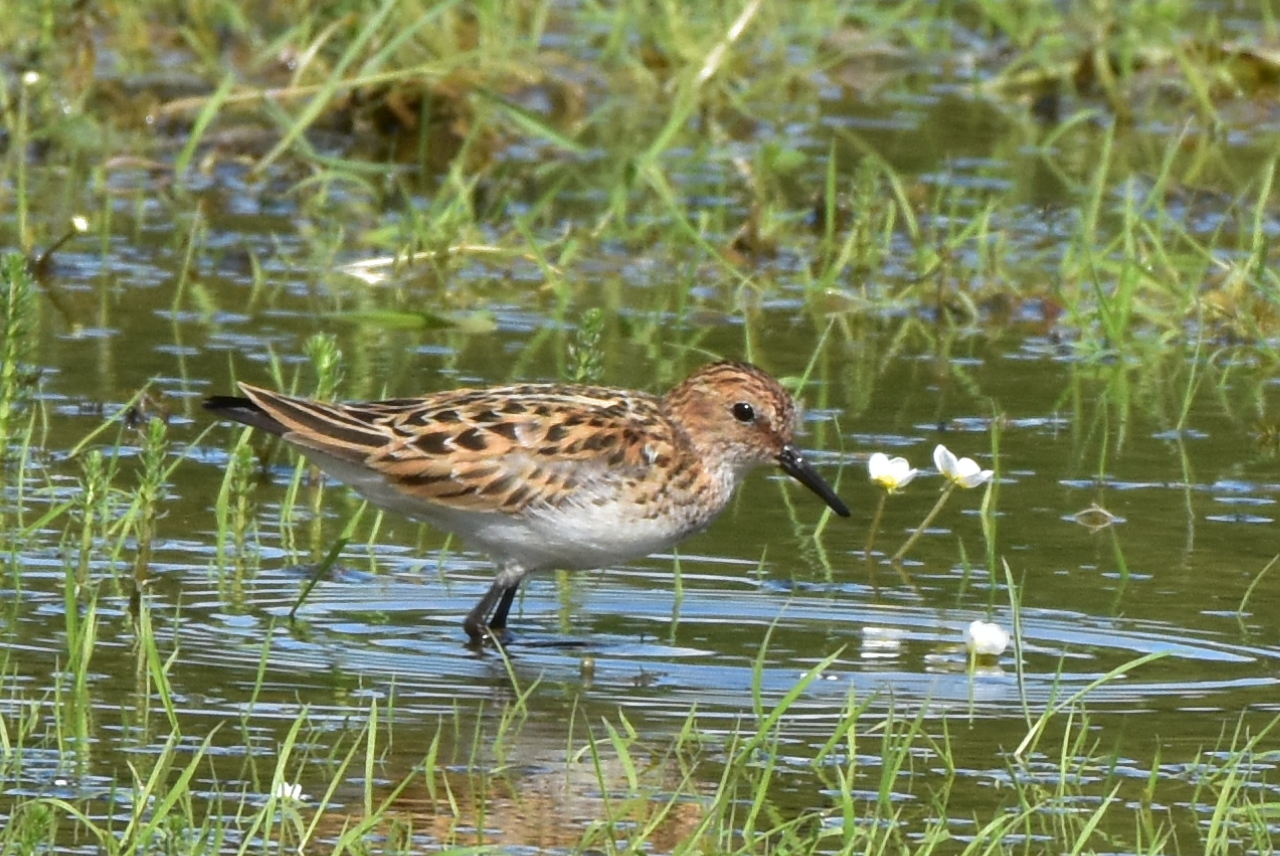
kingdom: Animalia
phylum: Chordata
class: Aves
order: Charadriiformes
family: Scolopacidae
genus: Calidris
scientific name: Calidris minuta
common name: Little stint
